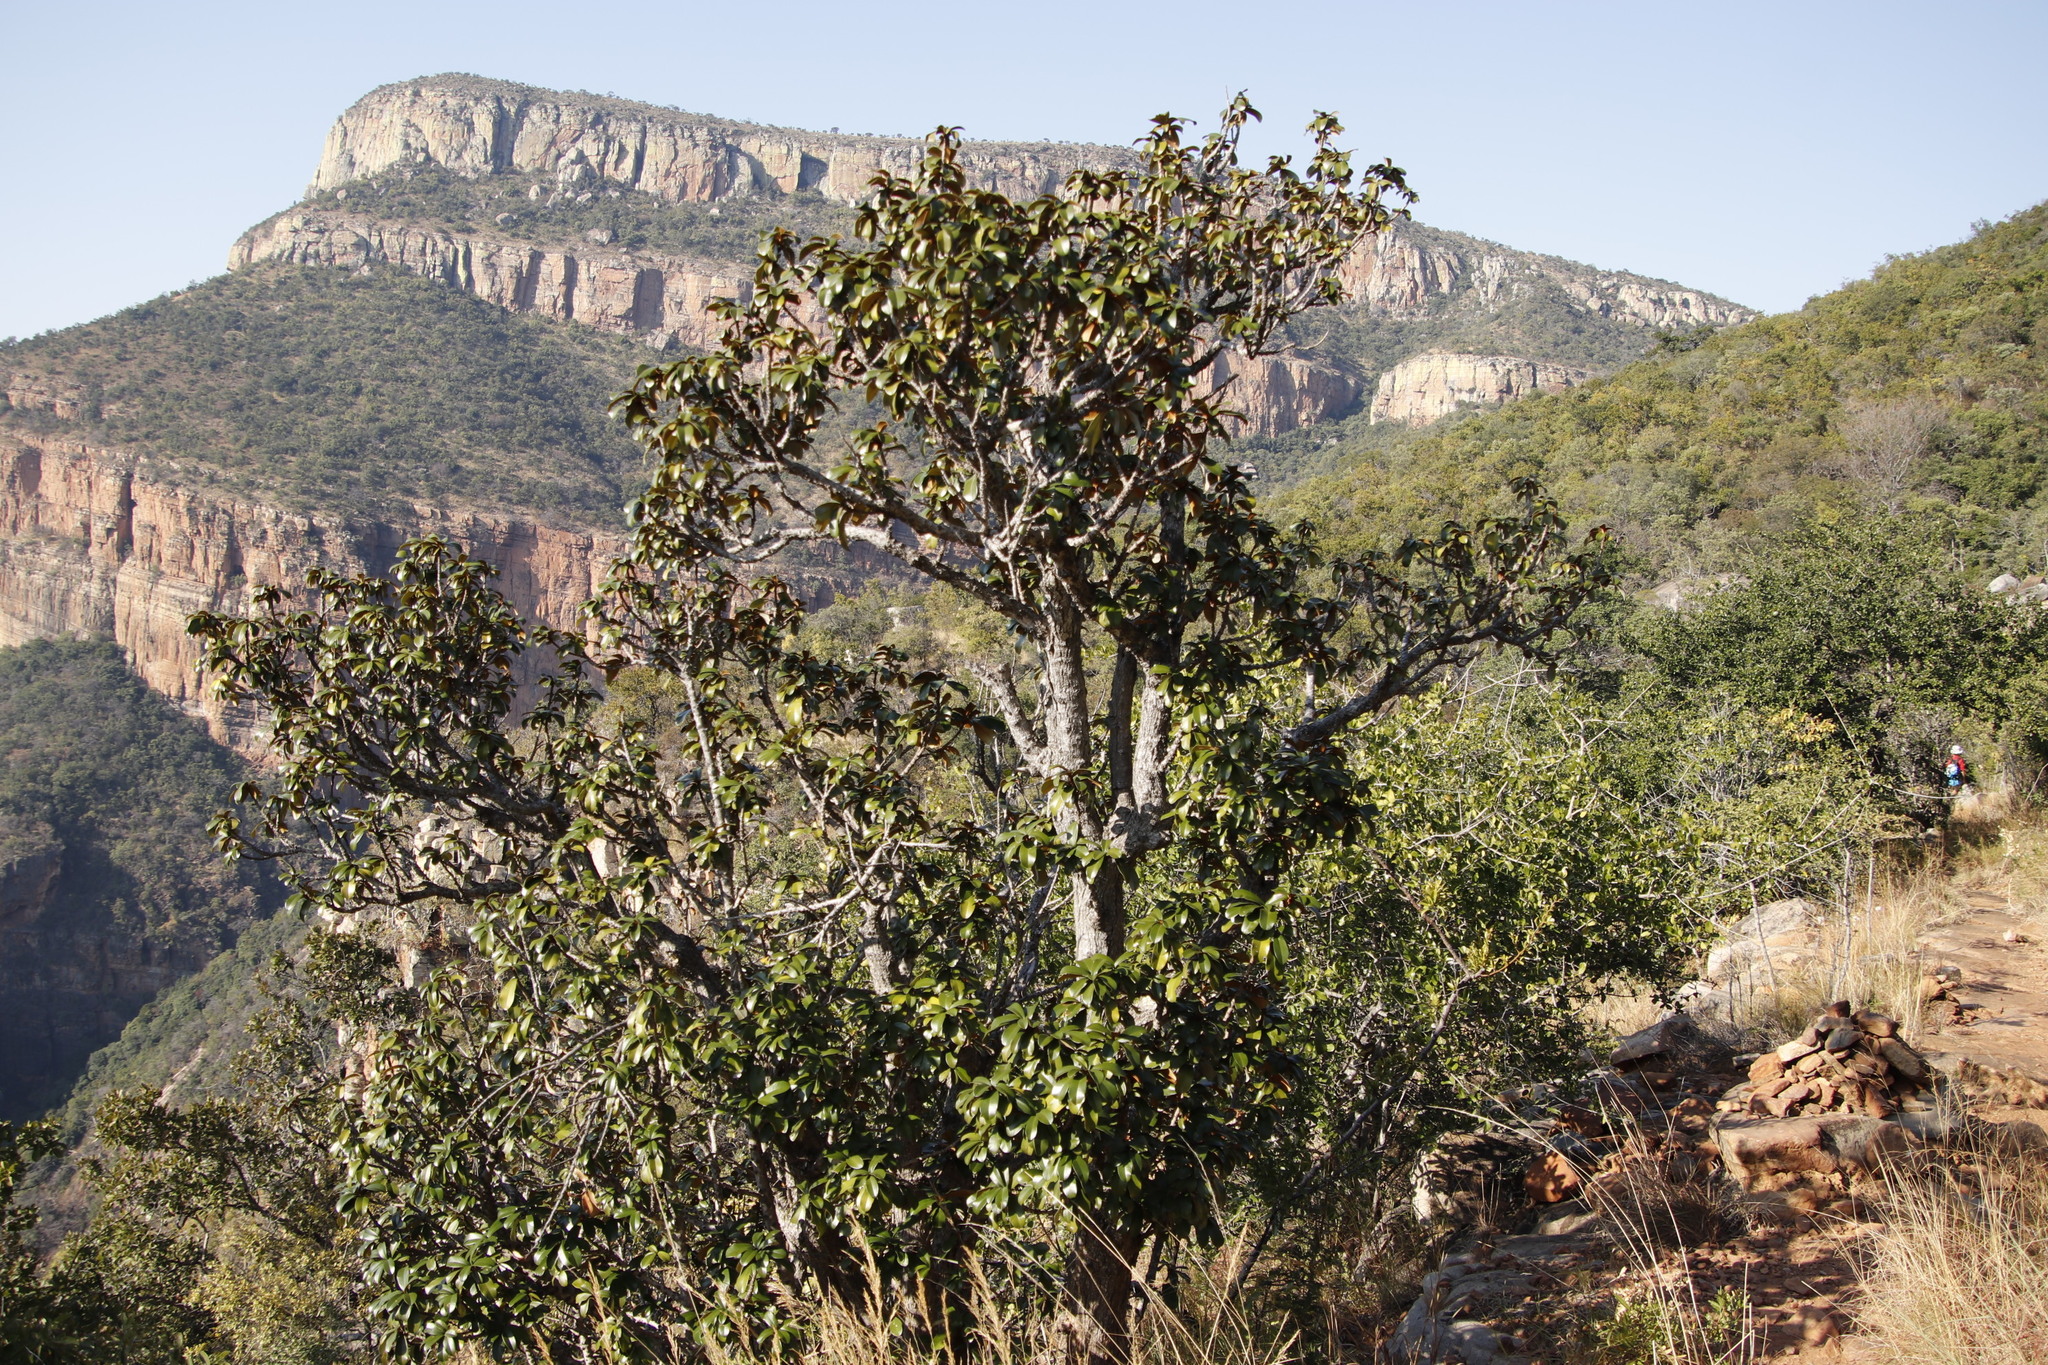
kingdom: Plantae
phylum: Tracheophyta
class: Magnoliopsida
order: Ericales
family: Sapotaceae
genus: Englerophytum
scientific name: Englerophytum magalismontanum
